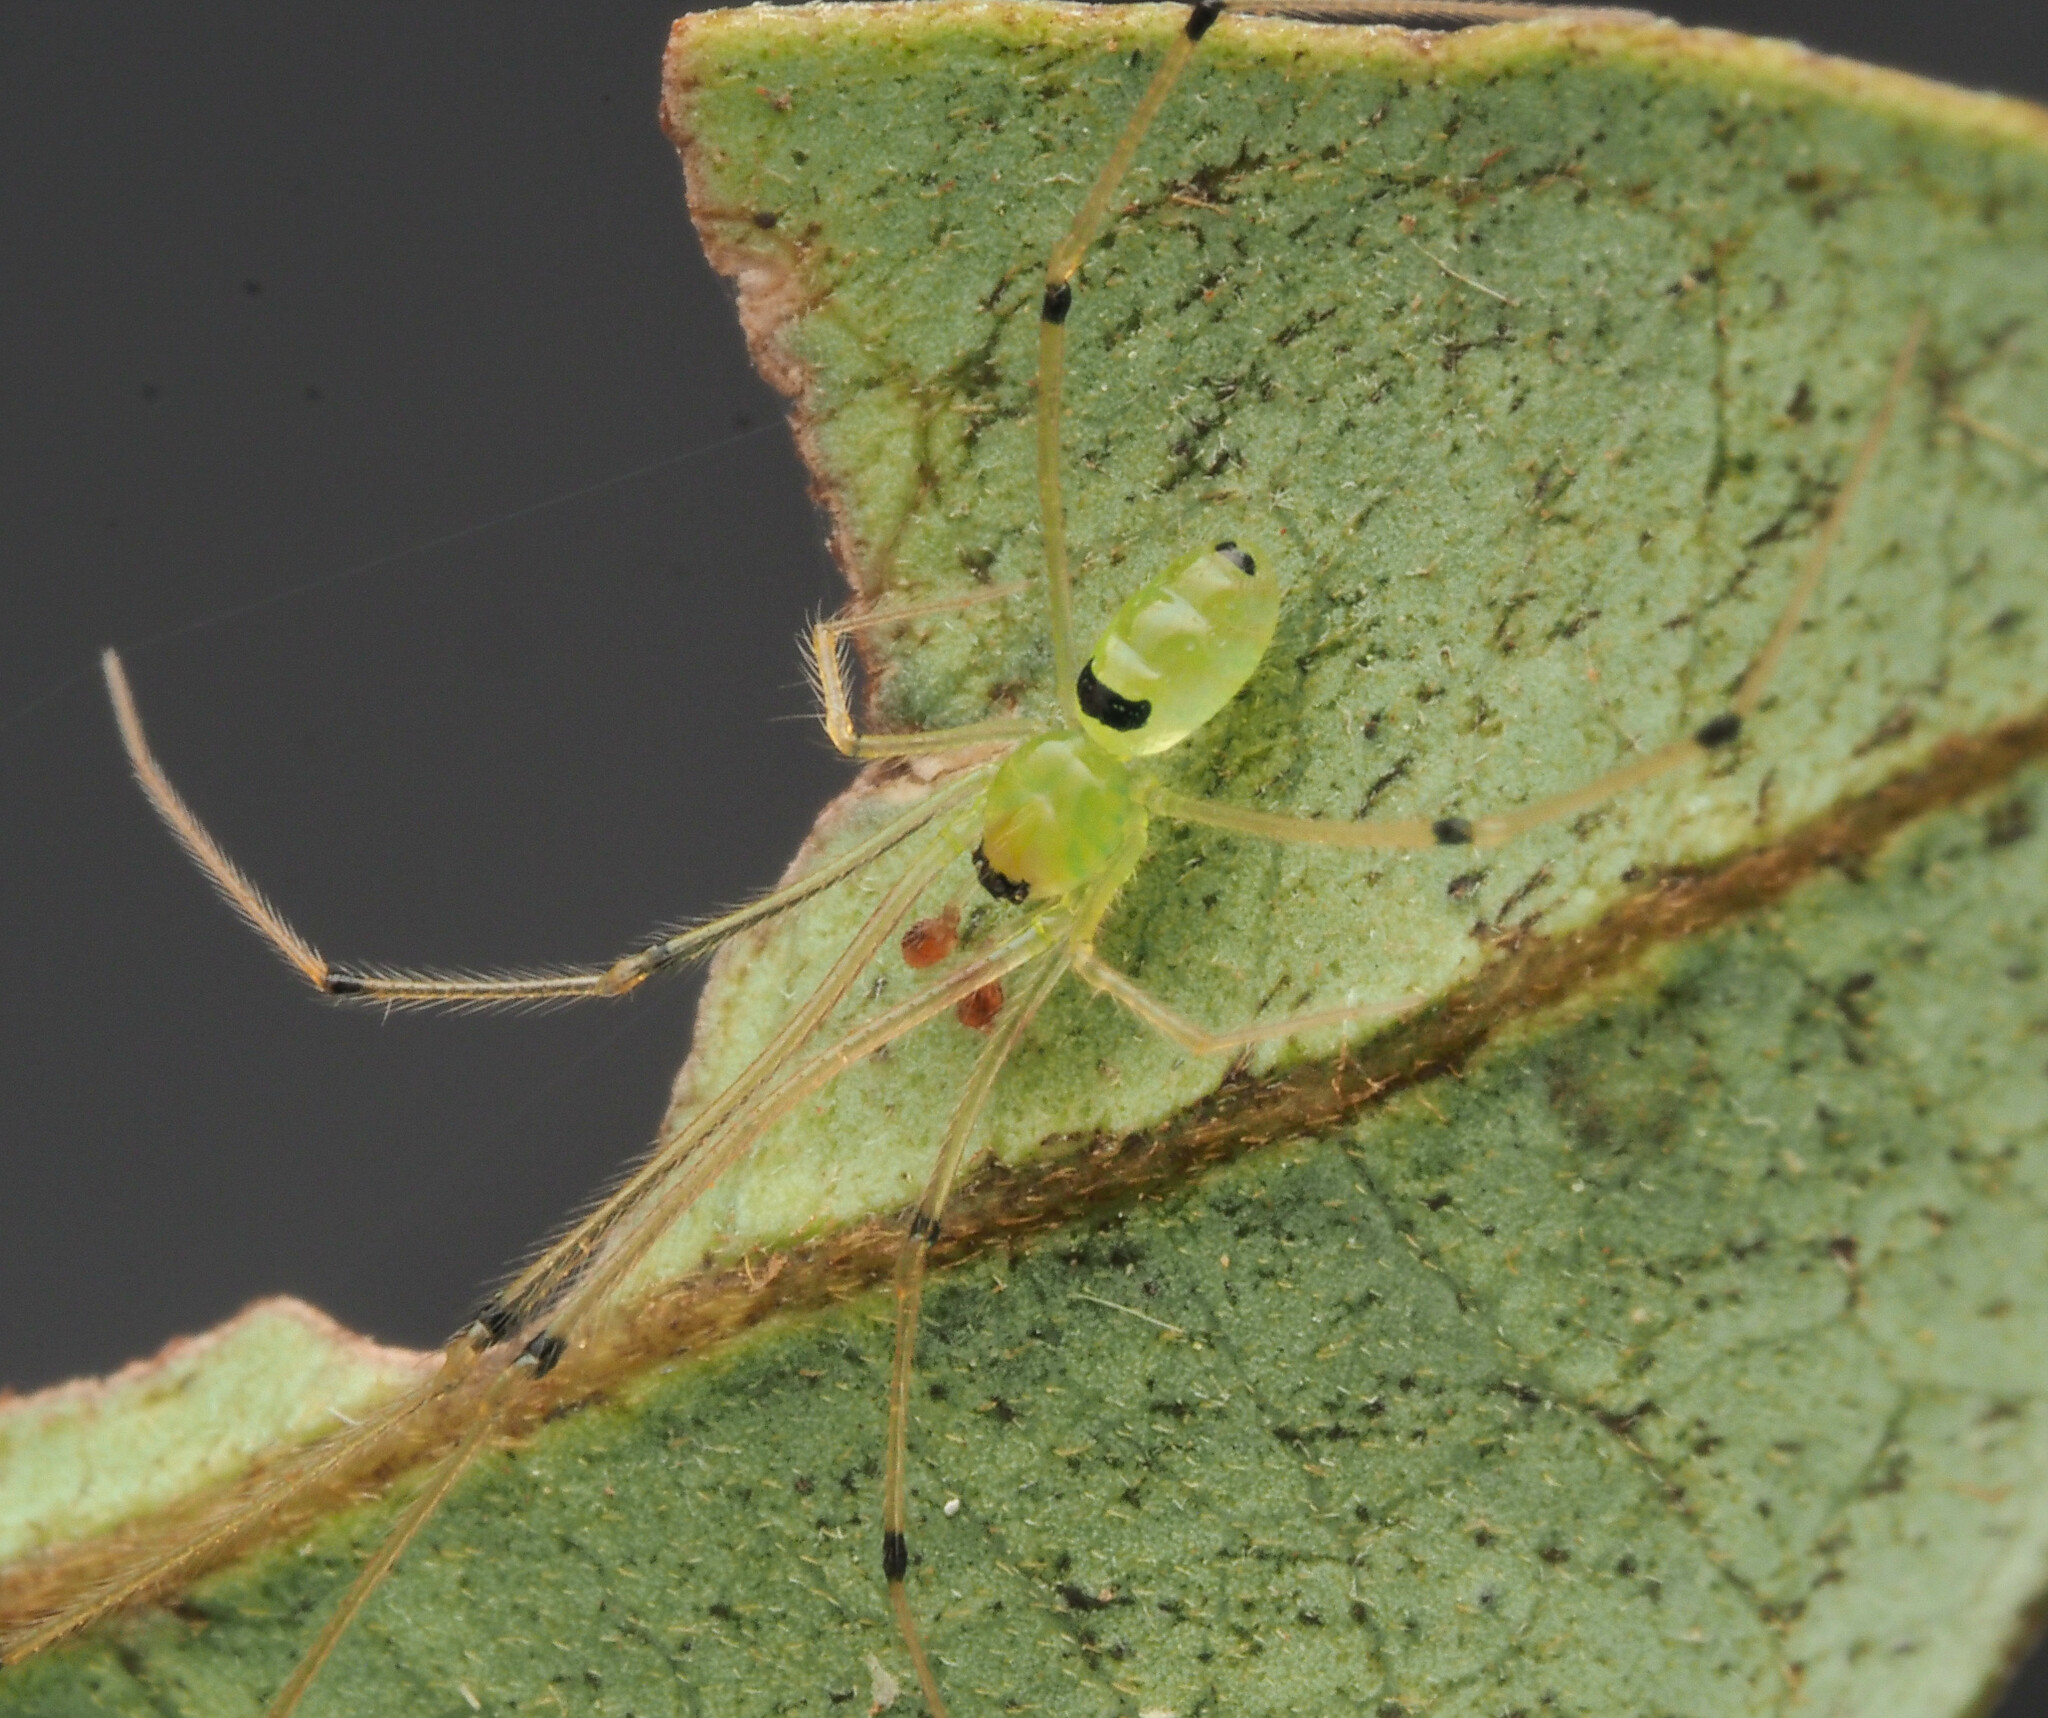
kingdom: Animalia
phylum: Arthropoda
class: Arachnida
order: Araneae
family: Theridiidae
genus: Chrysso
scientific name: Chrysso
